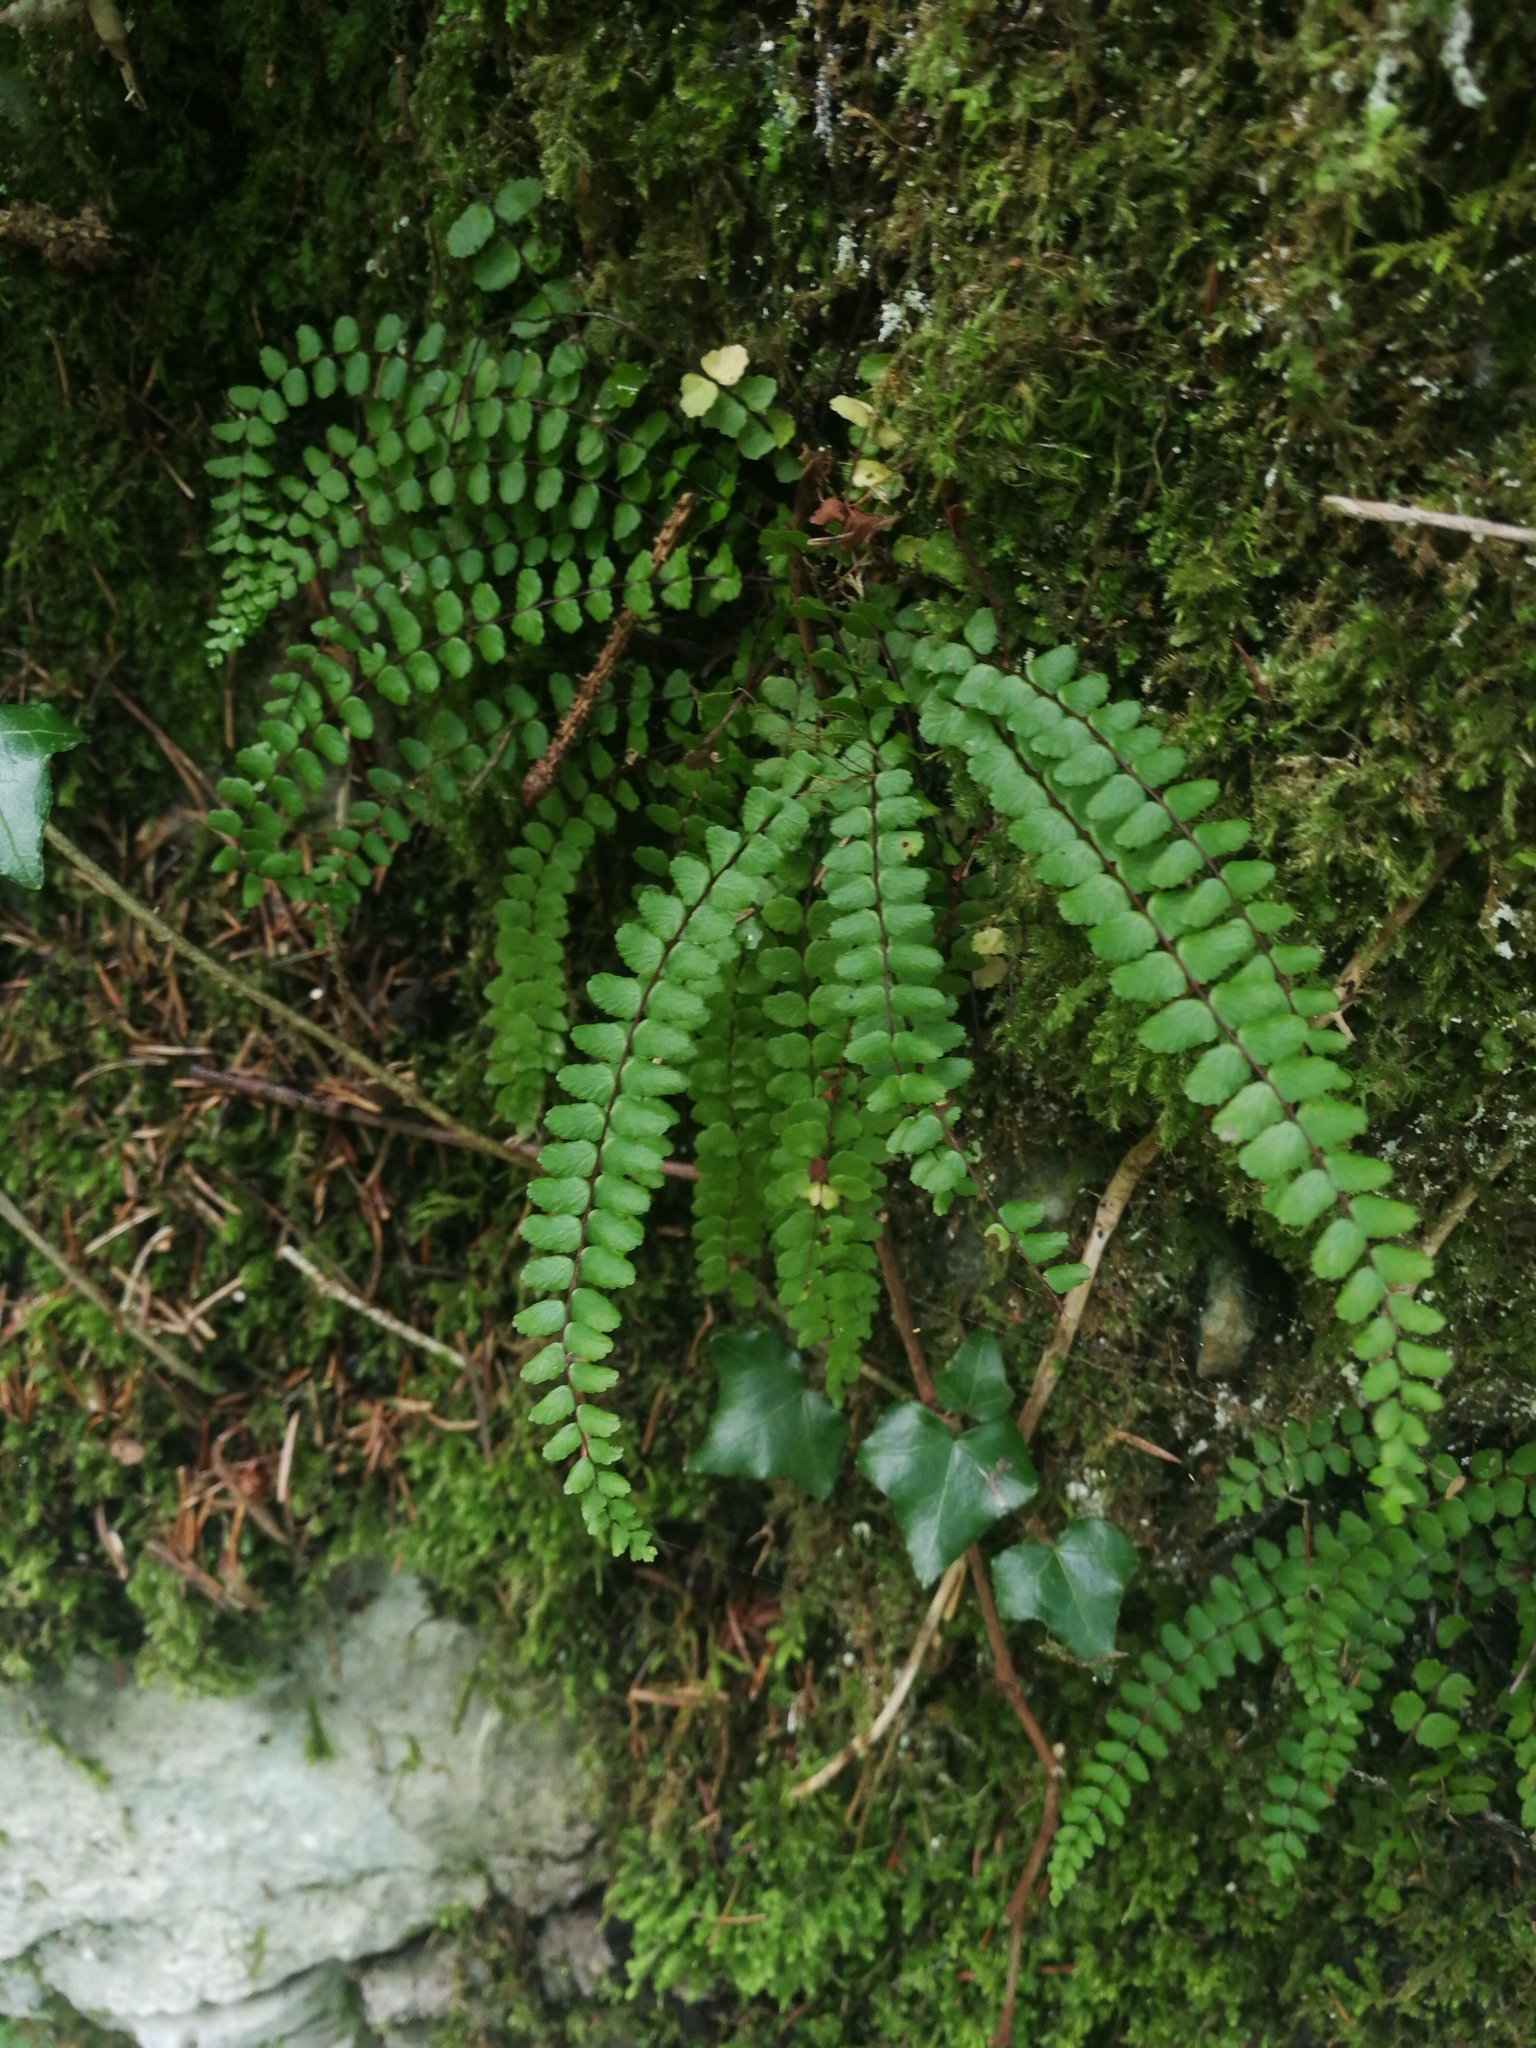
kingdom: Plantae
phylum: Tracheophyta
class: Polypodiopsida
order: Polypodiales
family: Aspleniaceae
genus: Asplenium
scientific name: Asplenium trichomanes
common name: Maidenhair spleenwort
